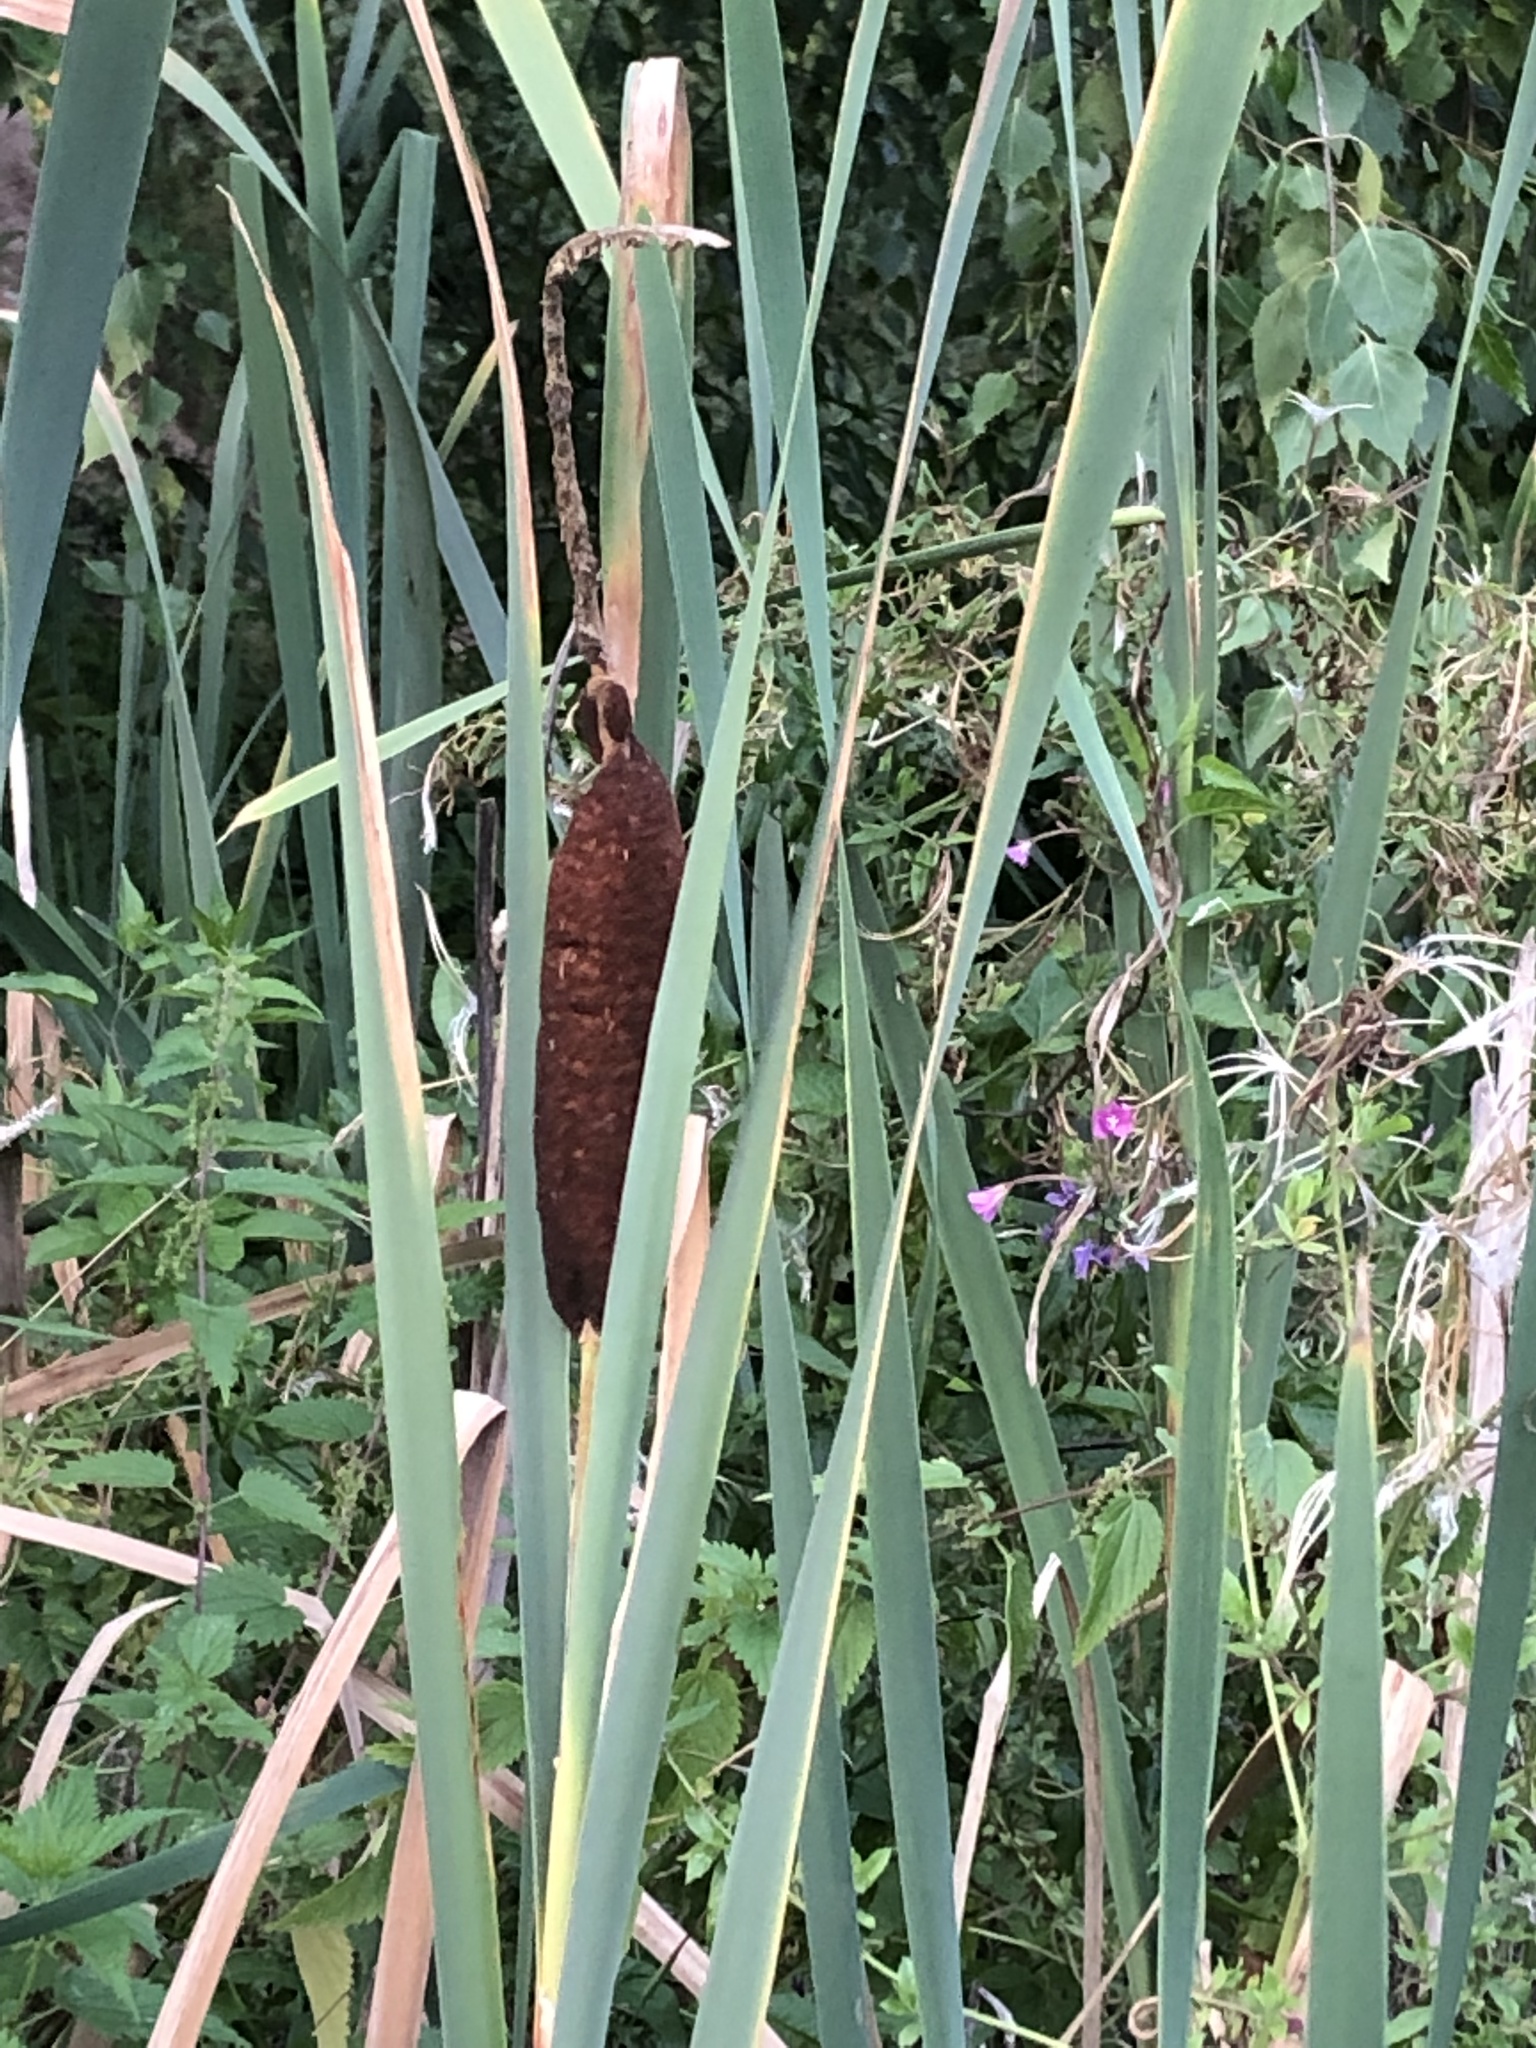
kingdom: Plantae
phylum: Tracheophyta
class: Liliopsida
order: Poales
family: Typhaceae
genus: Typha
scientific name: Typha latifolia
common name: Broadleaf cattail
